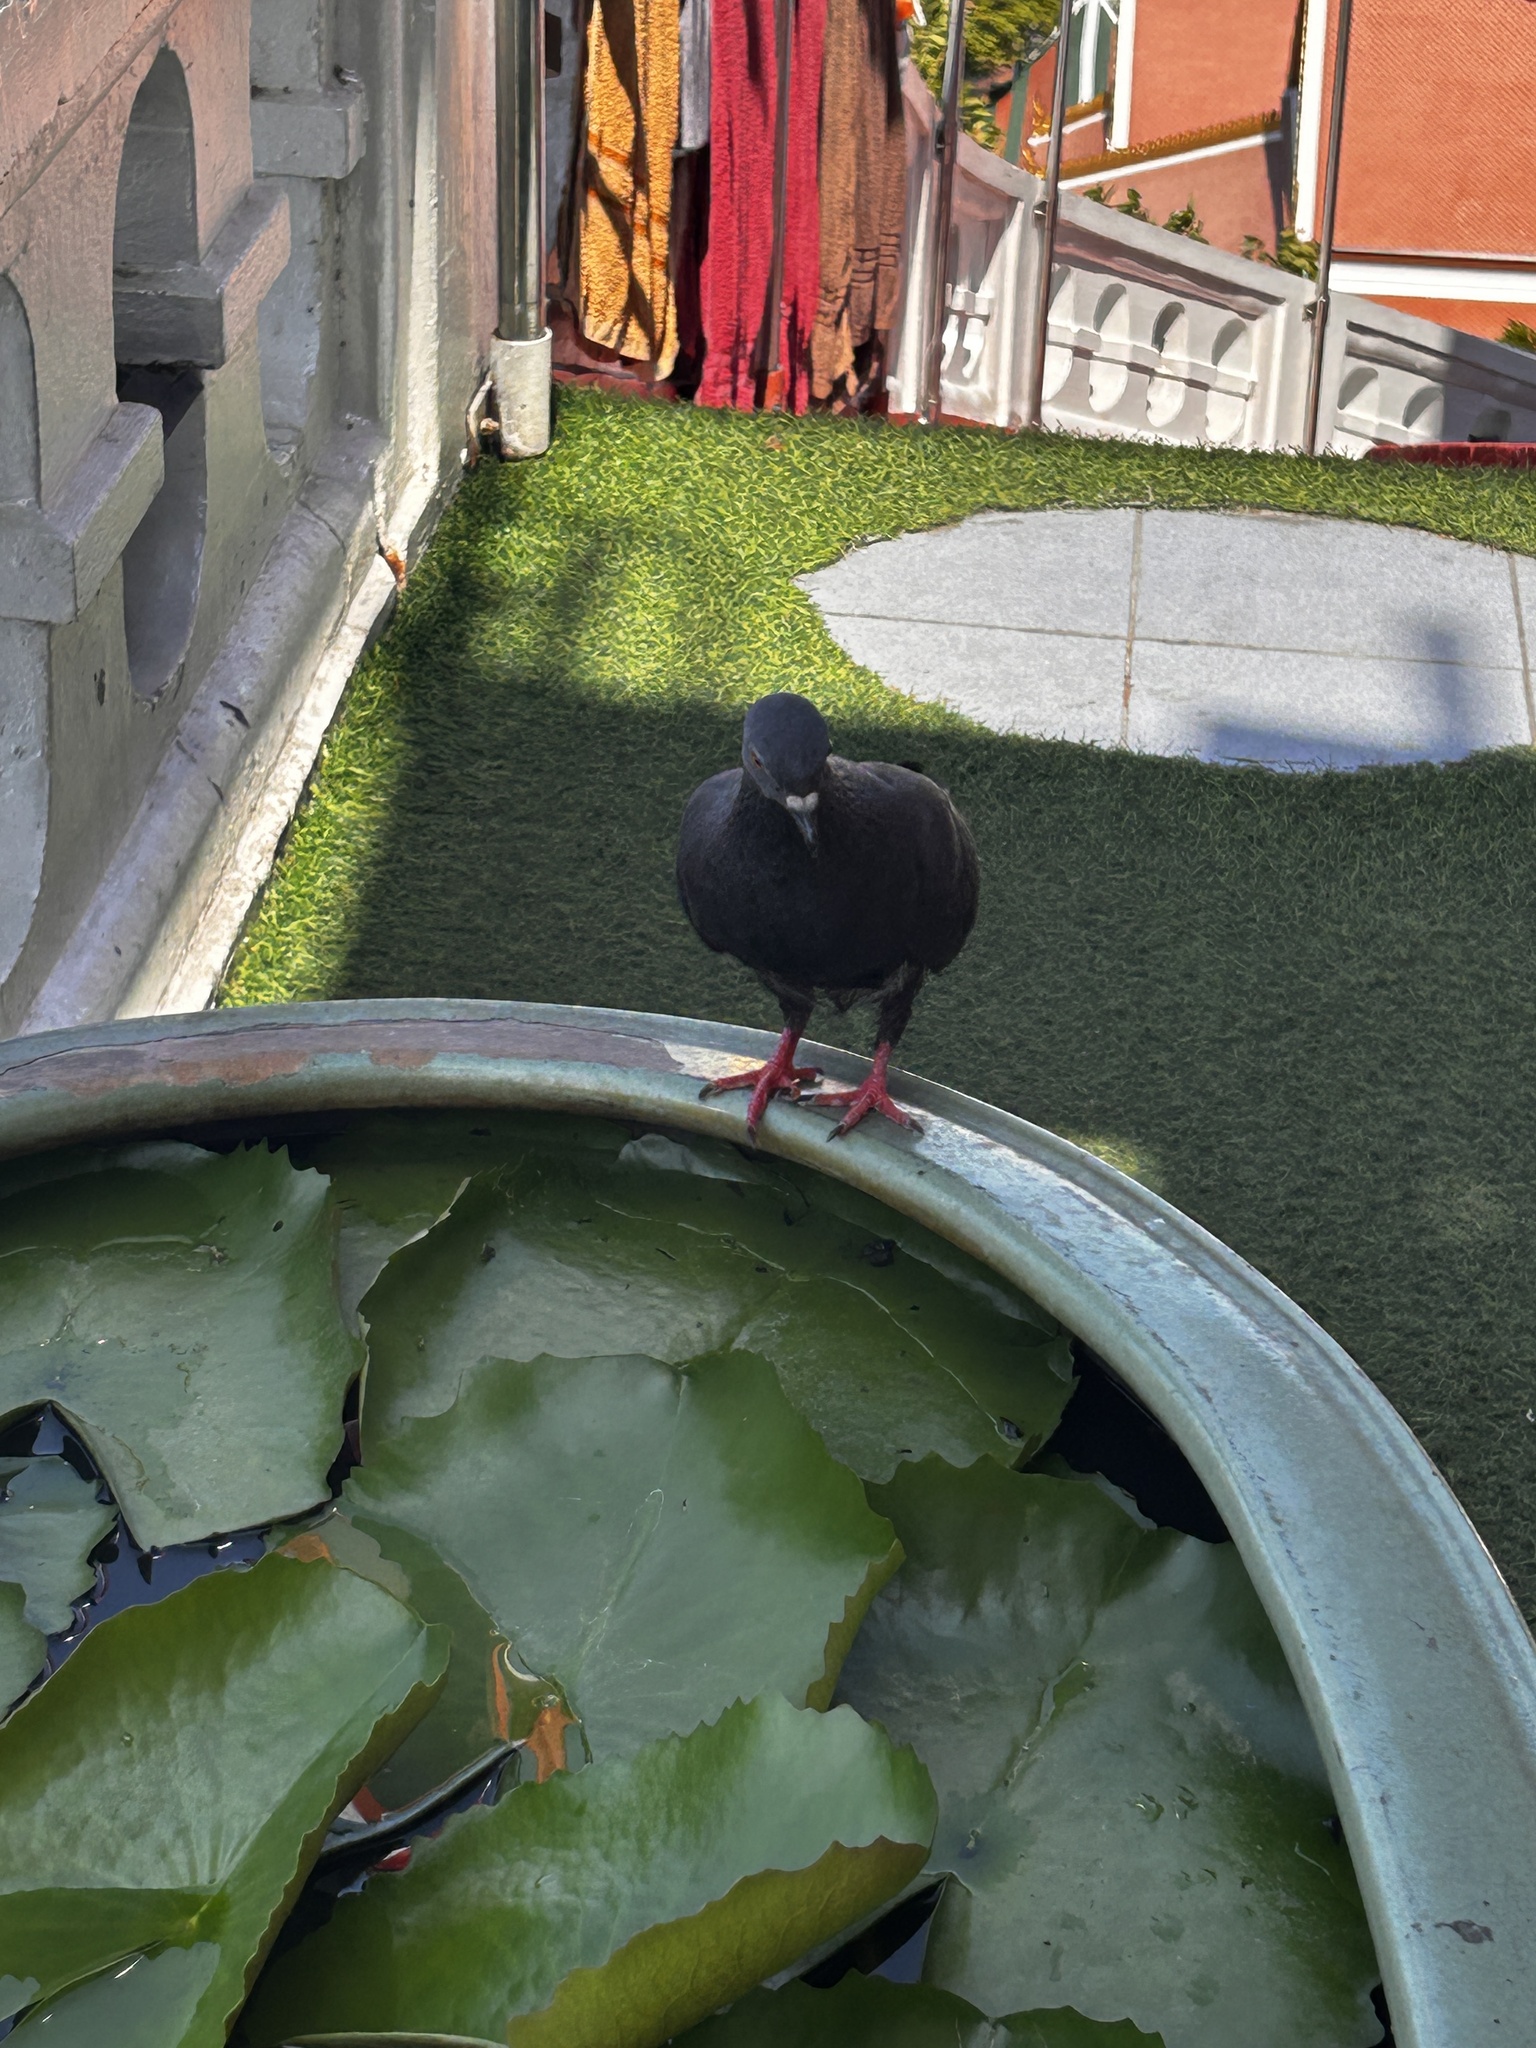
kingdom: Animalia
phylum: Chordata
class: Aves
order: Columbiformes
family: Columbidae
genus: Columba
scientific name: Columba livia
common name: Rock pigeon
